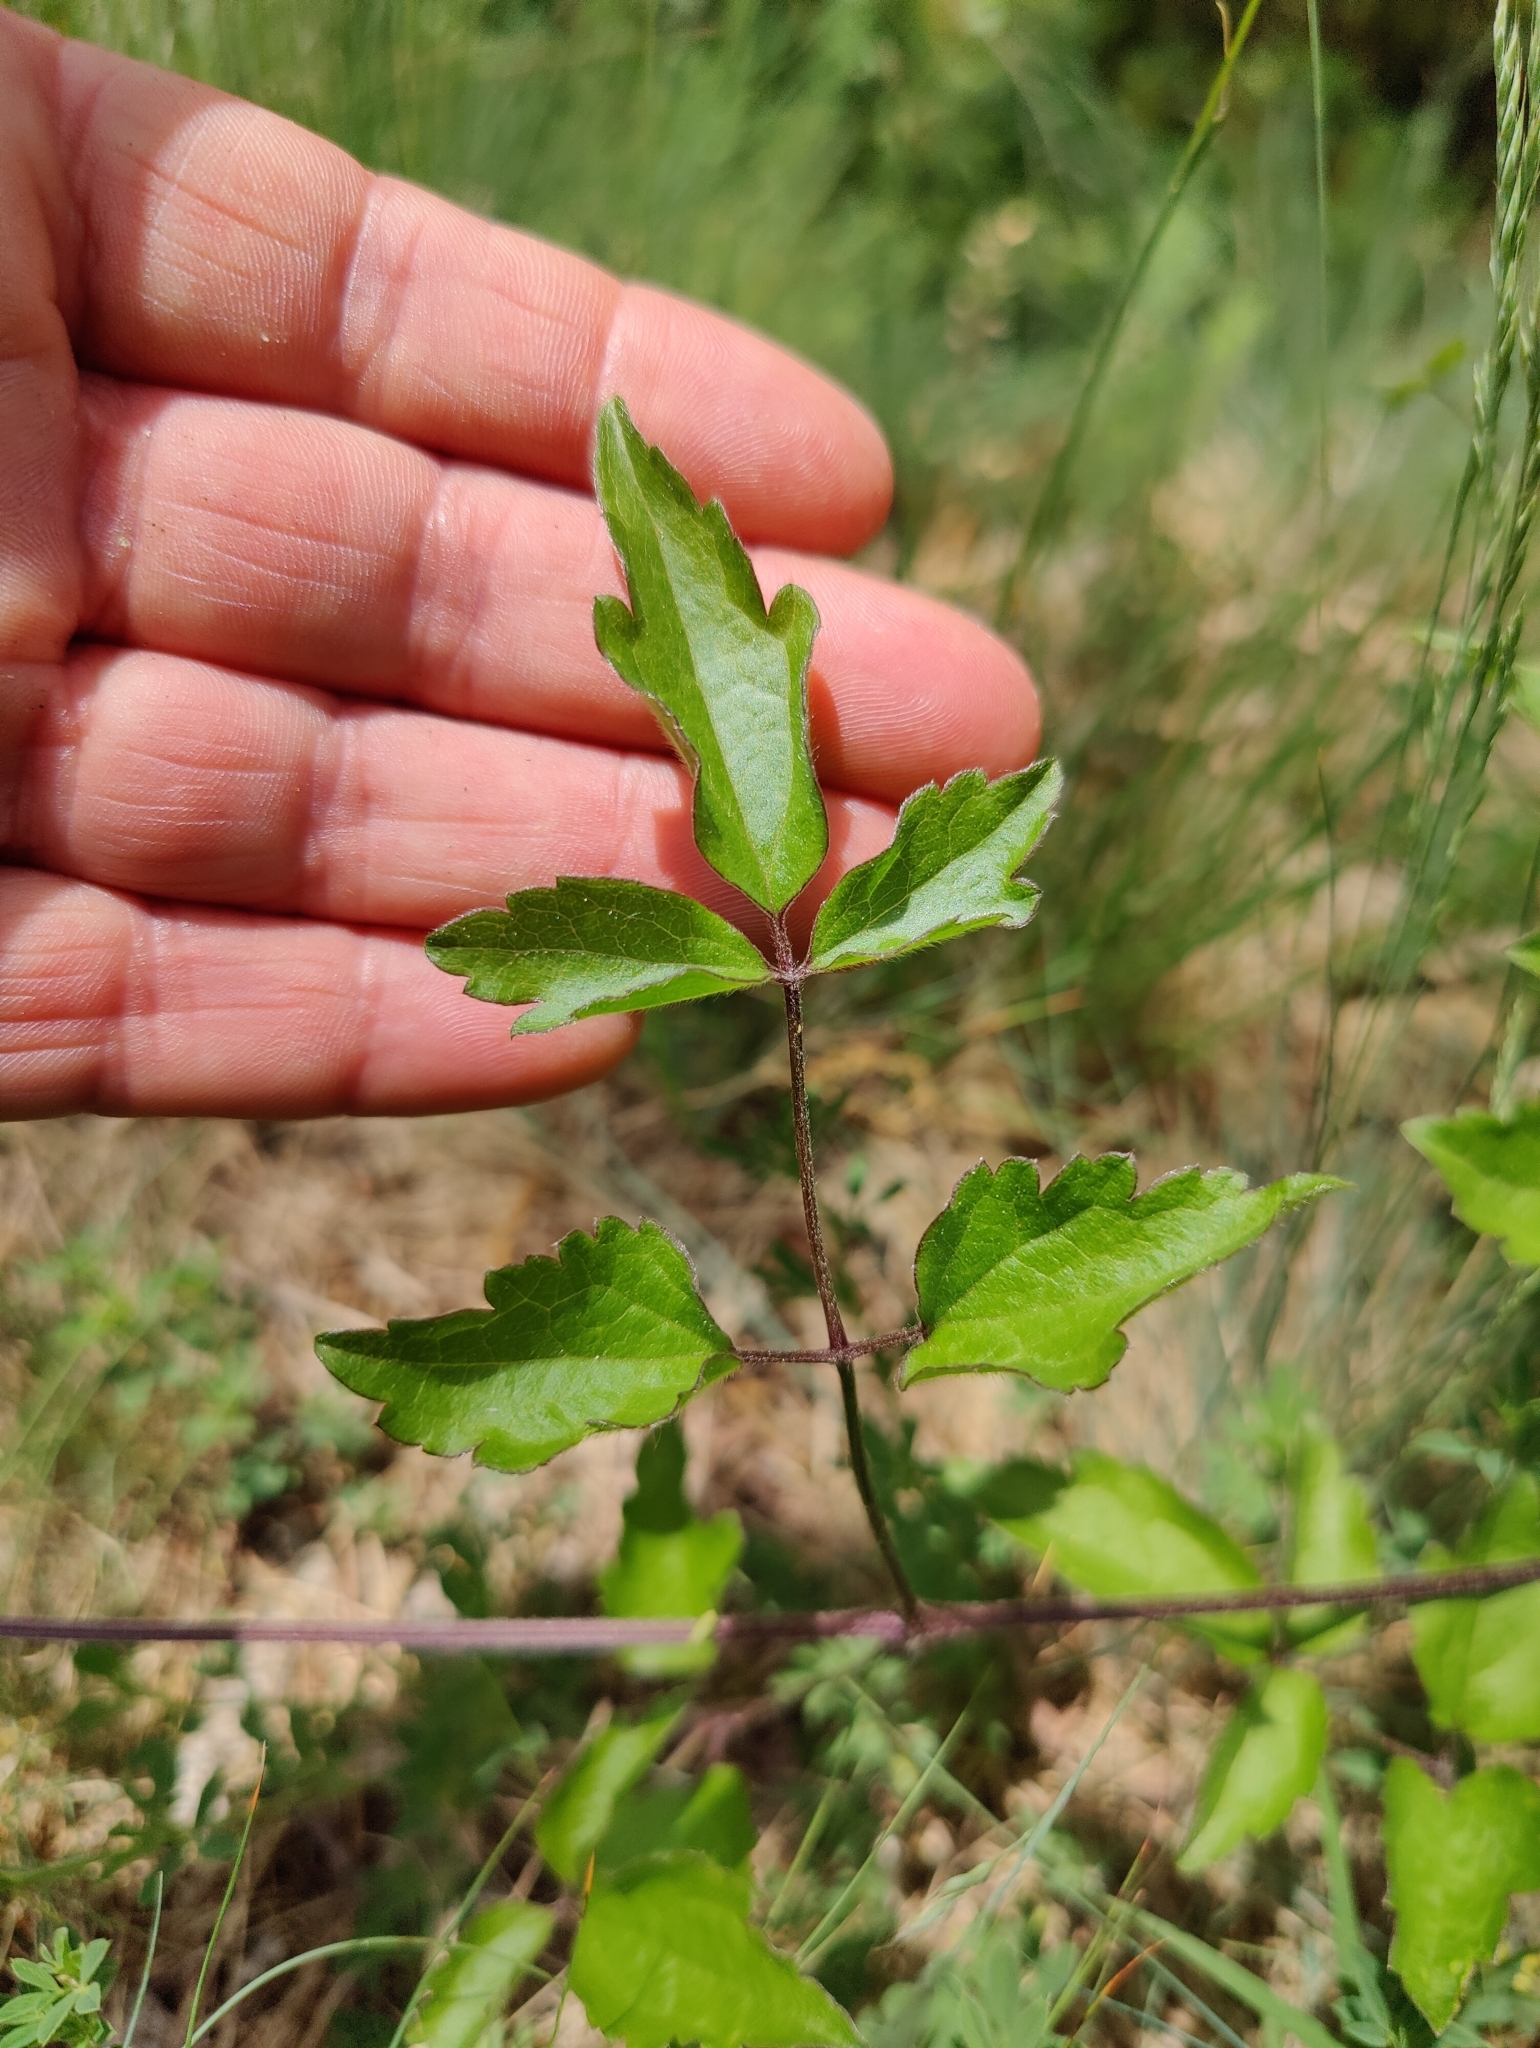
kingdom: Plantae
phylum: Tracheophyta
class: Magnoliopsida
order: Ranunculales
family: Ranunculaceae
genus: Clematis
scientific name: Clematis vitalba
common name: Evergreen clematis
